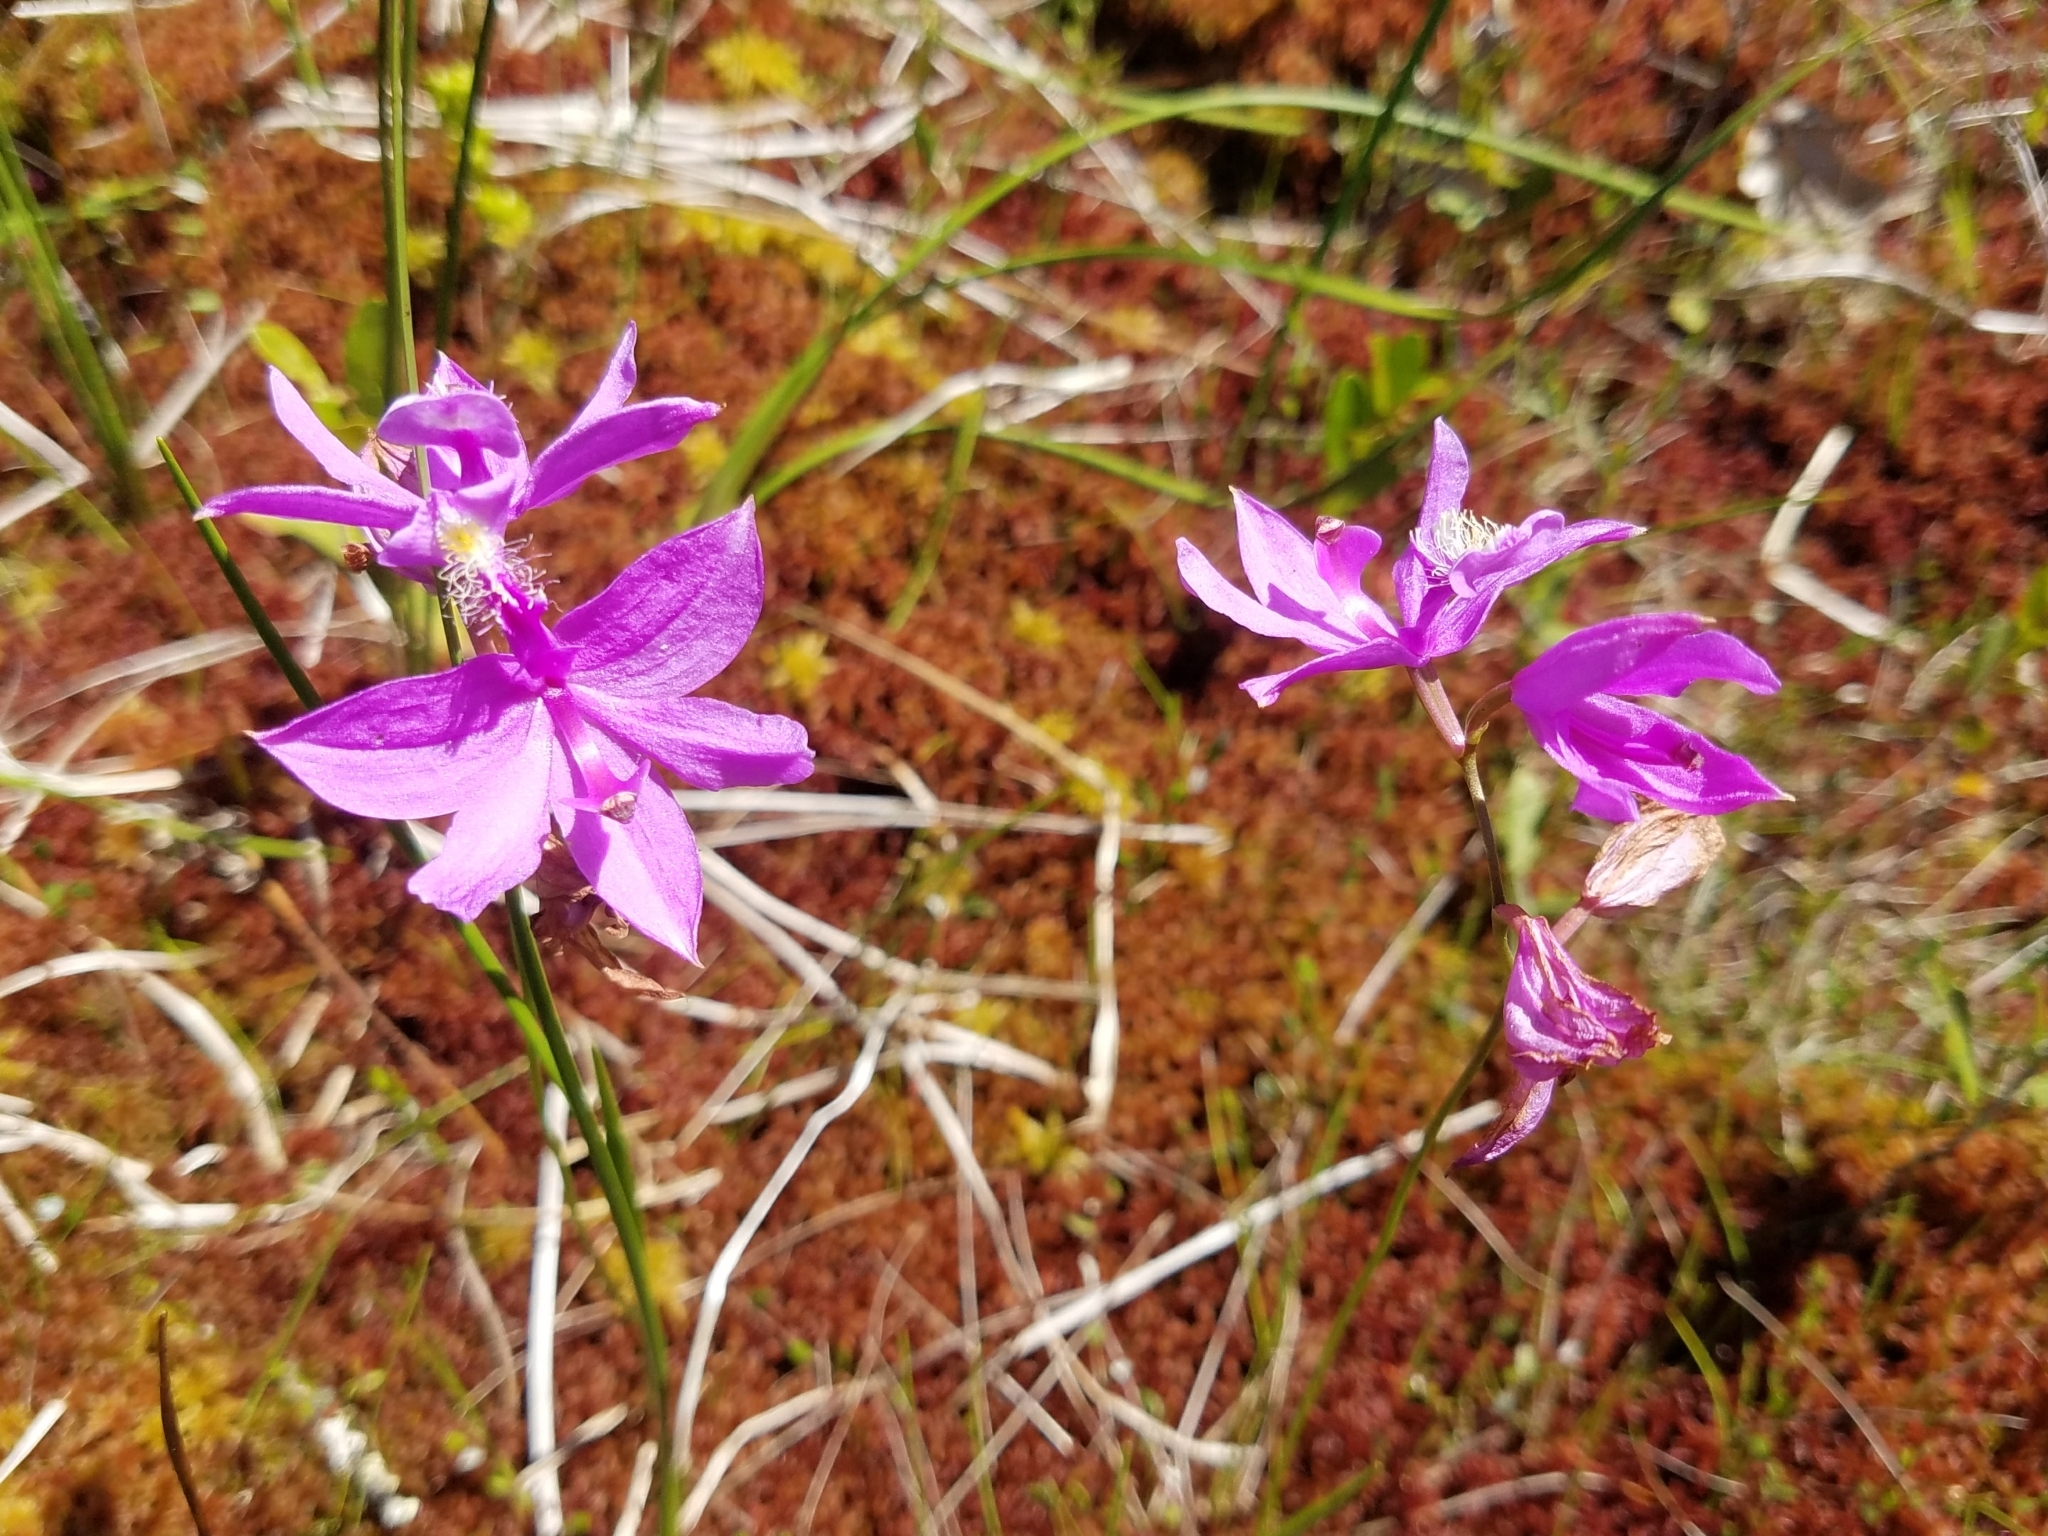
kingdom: Plantae
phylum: Tracheophyta
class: Liliopsida
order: Asparagales
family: Orchidaceae
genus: Calopogon
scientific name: Calopogon tuberosus
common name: Grass-pink
